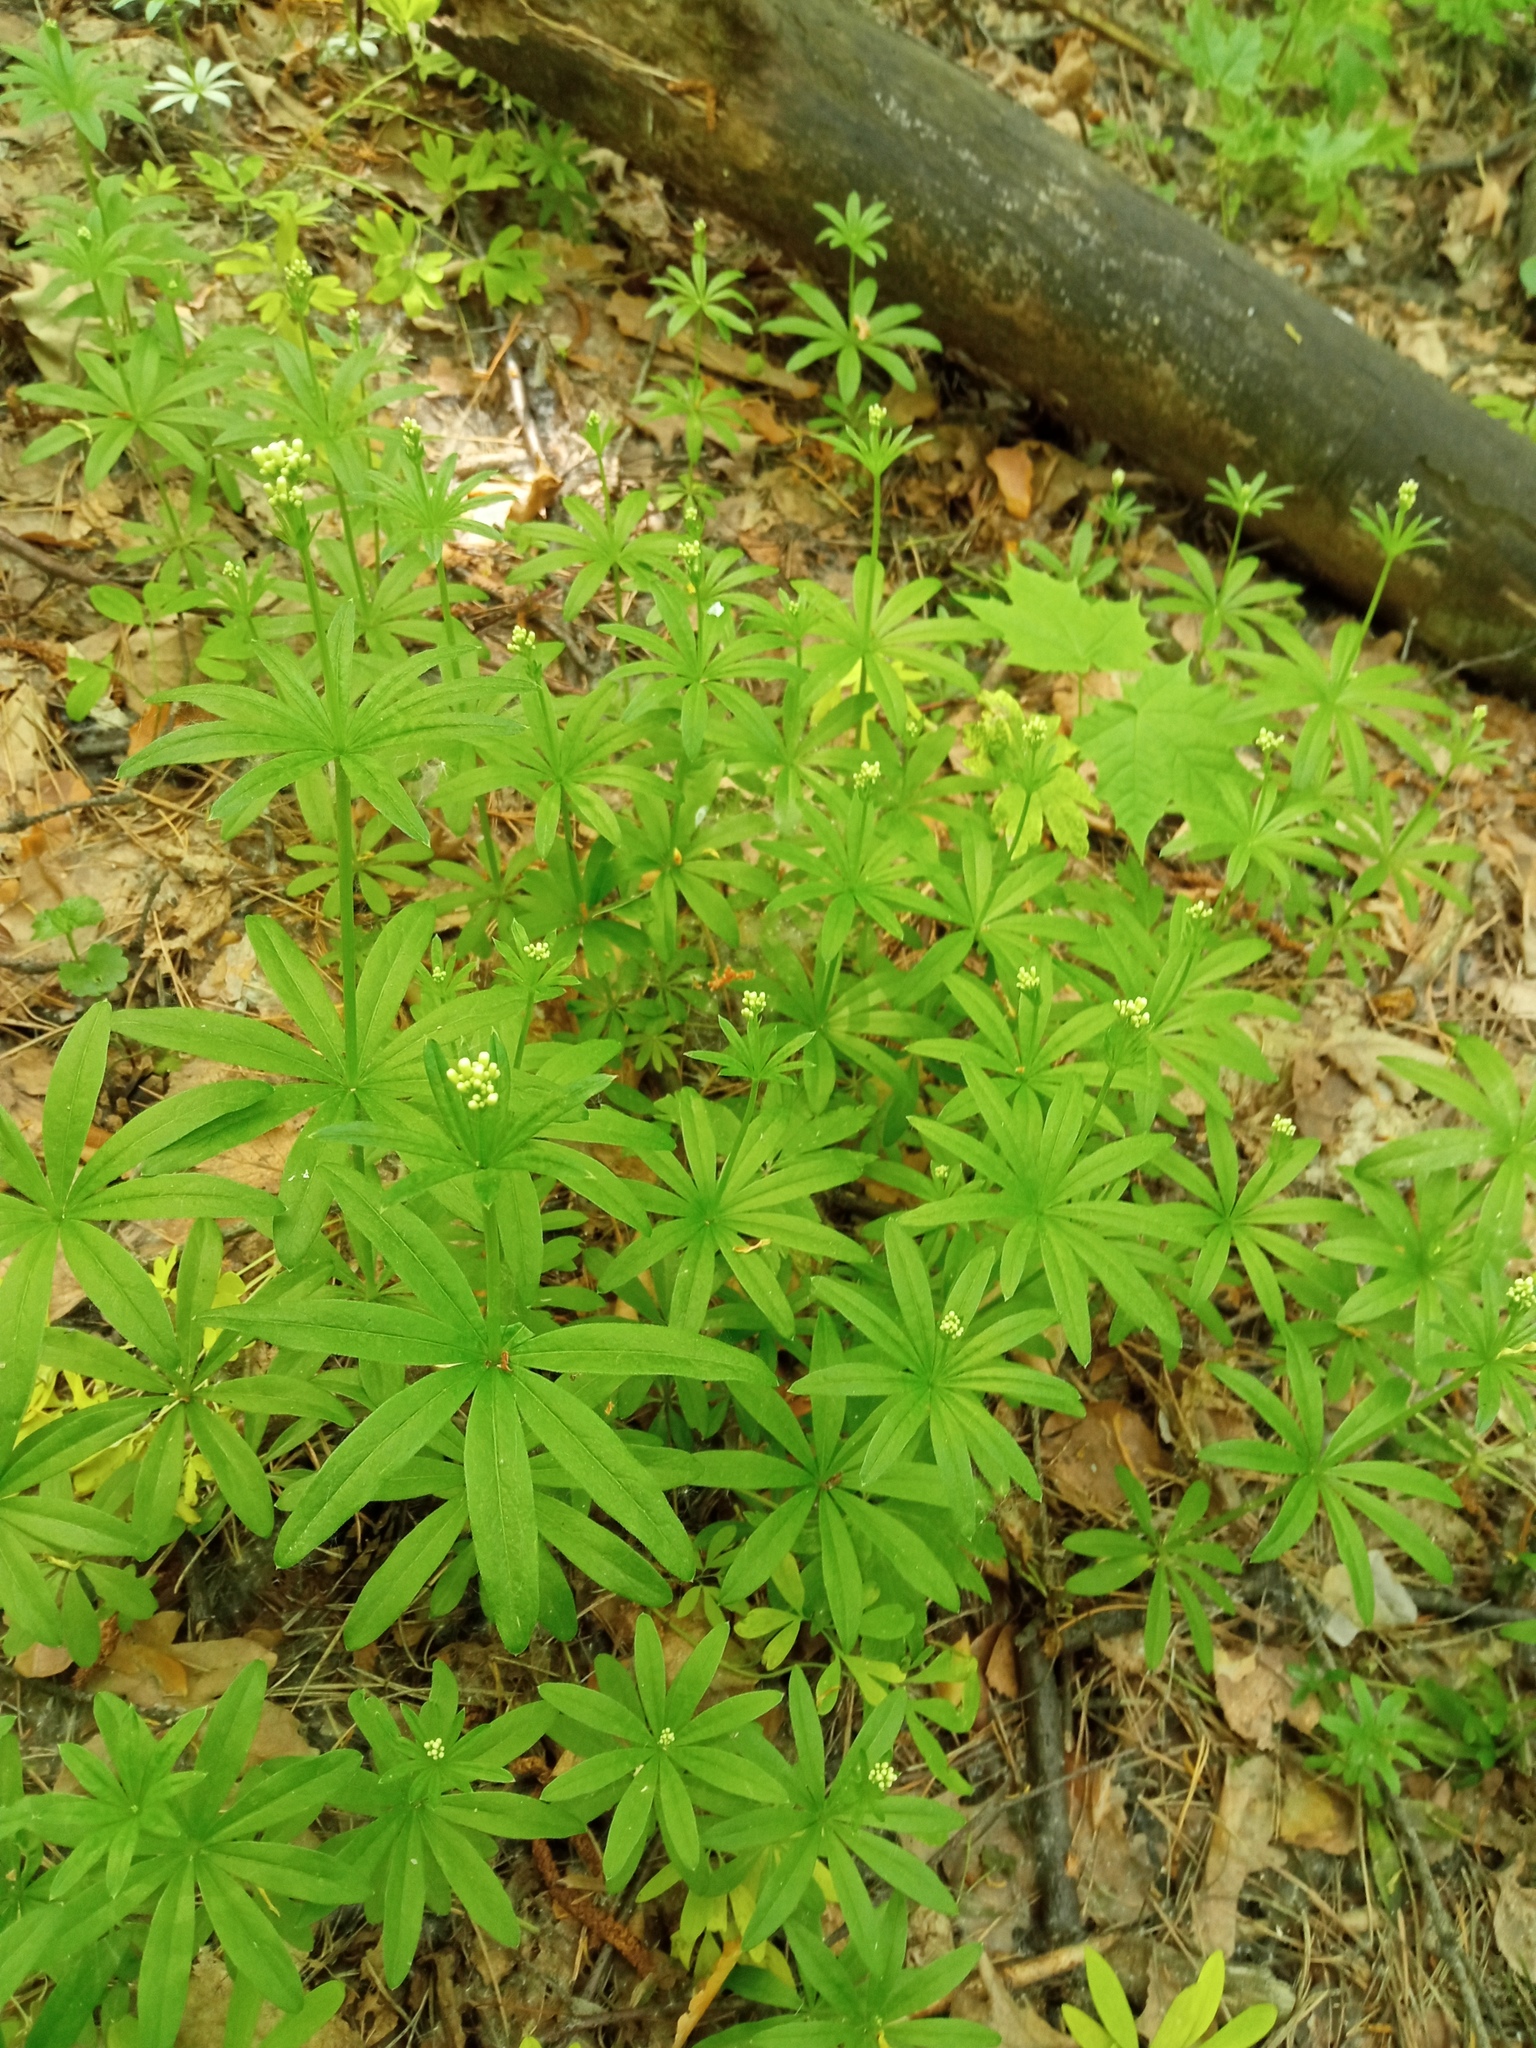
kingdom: Plantae
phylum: Tracheophyta
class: Magnoliopsida
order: Gentianales
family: Rubiaceae
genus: Galium
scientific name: Galium odoratum
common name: Sweet woodruff
